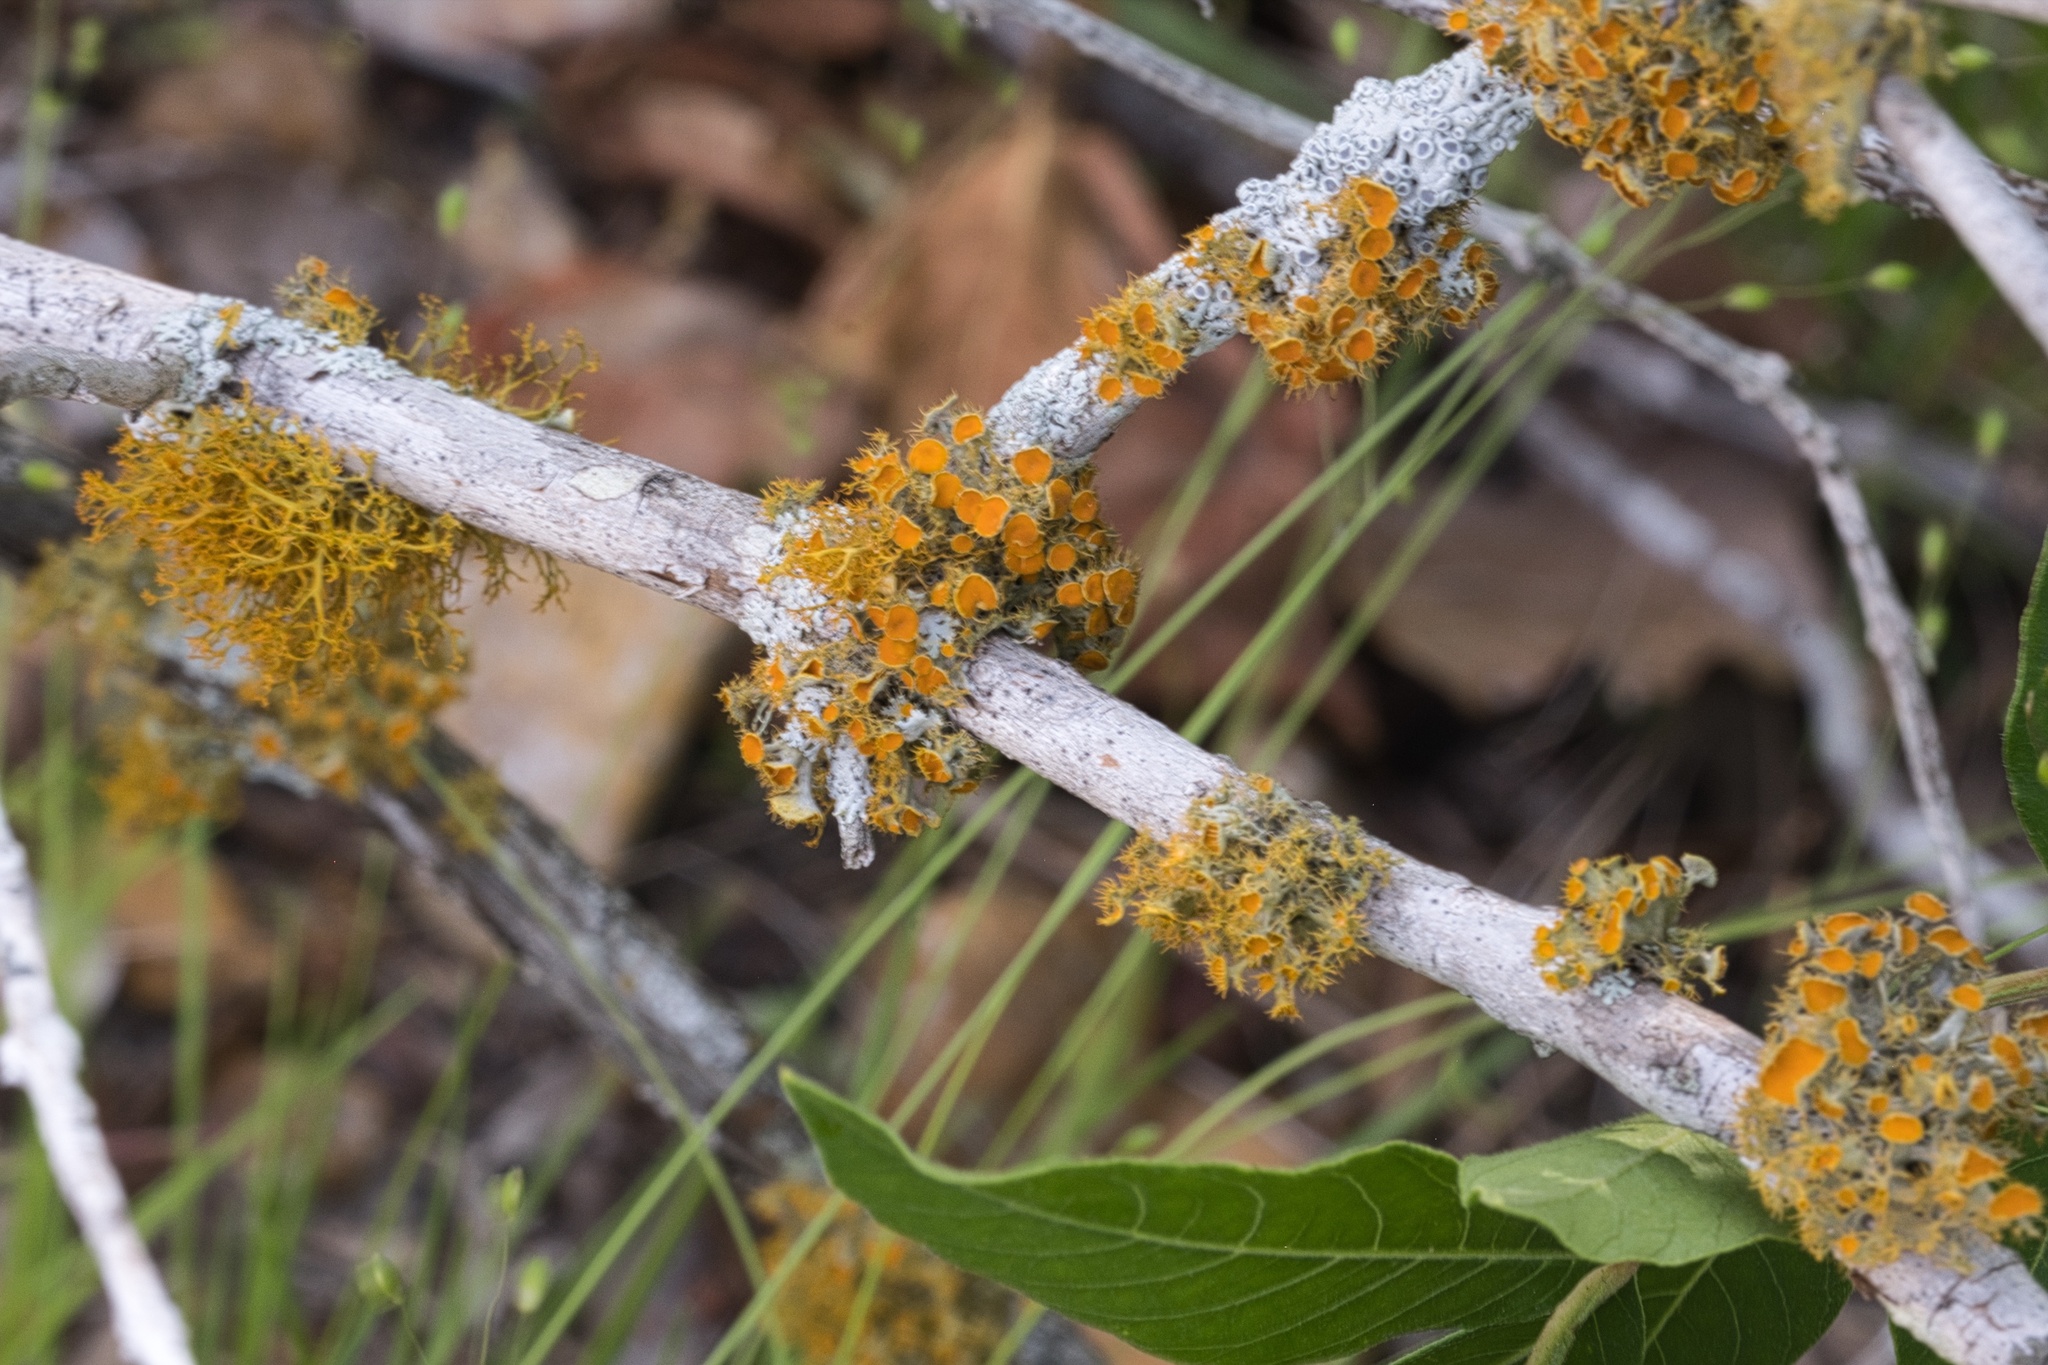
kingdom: Fungi
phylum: Ascomycota
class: Lecanoromycetes
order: Teloschistales
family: Teloschistaceae
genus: Niorma
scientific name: Niorma chrysophthalma
